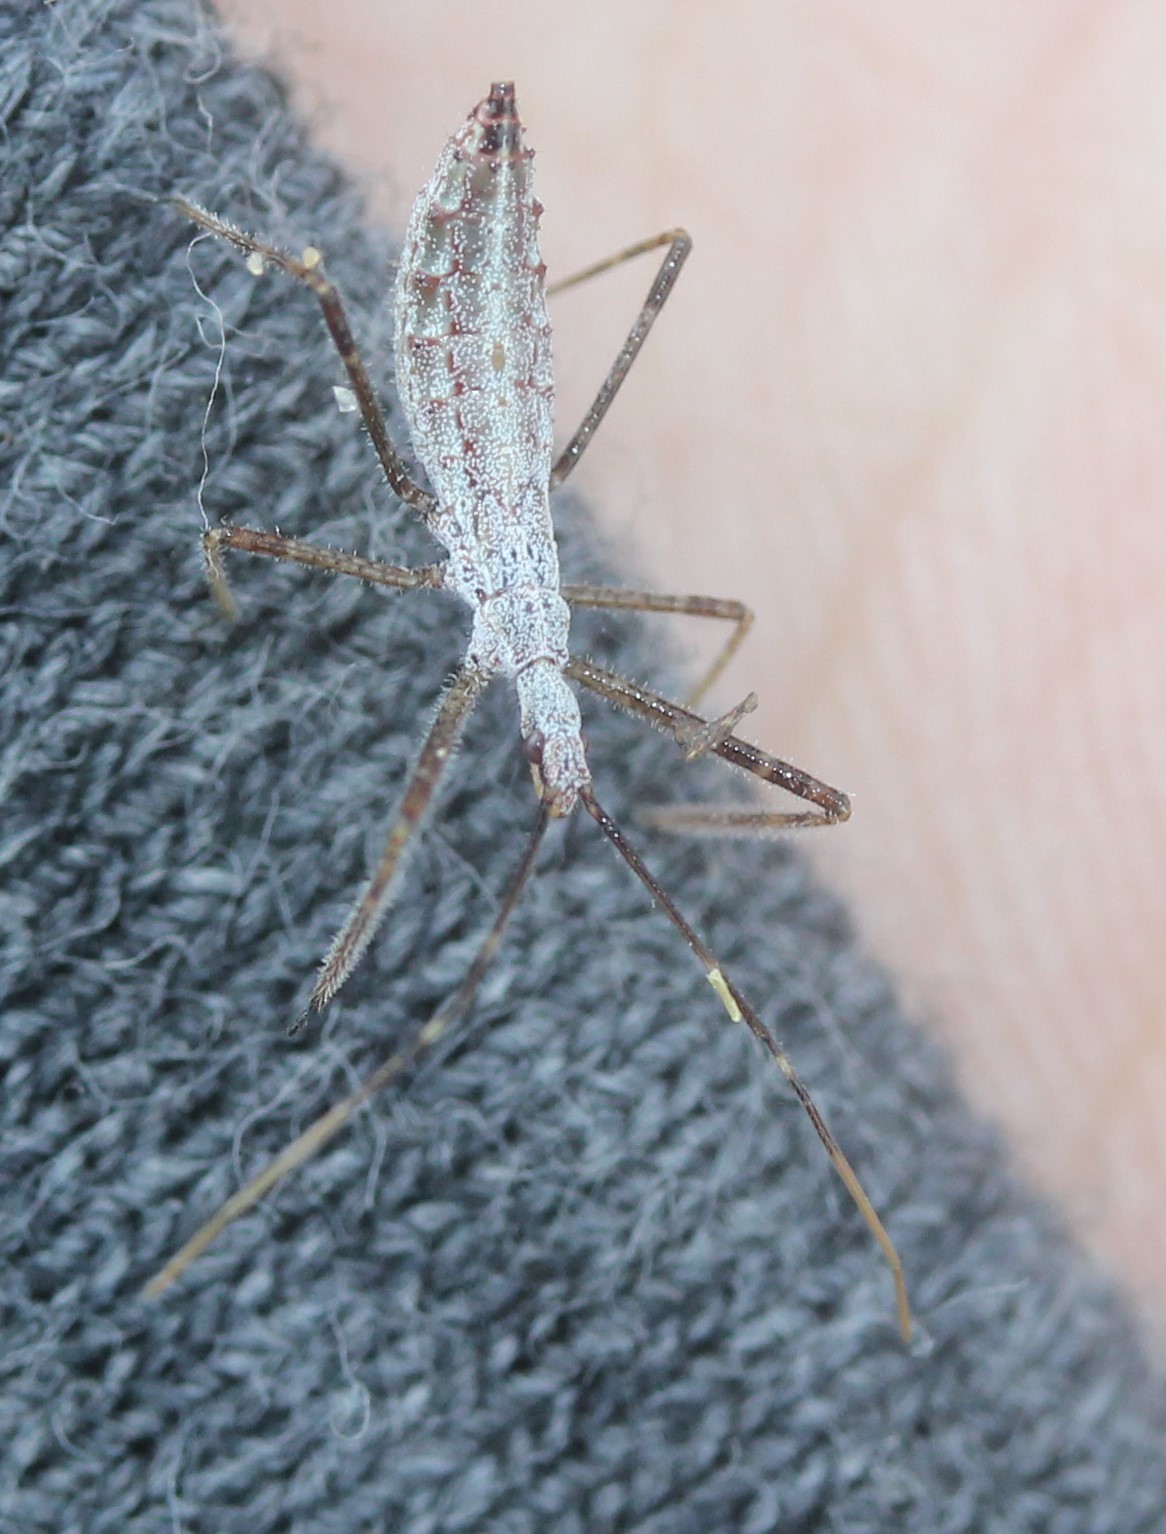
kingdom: Animalia
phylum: Arthropoda
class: Insecta
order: Hemiptera
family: Reduviidae
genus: Zelus
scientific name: Zelus tetracanthus
